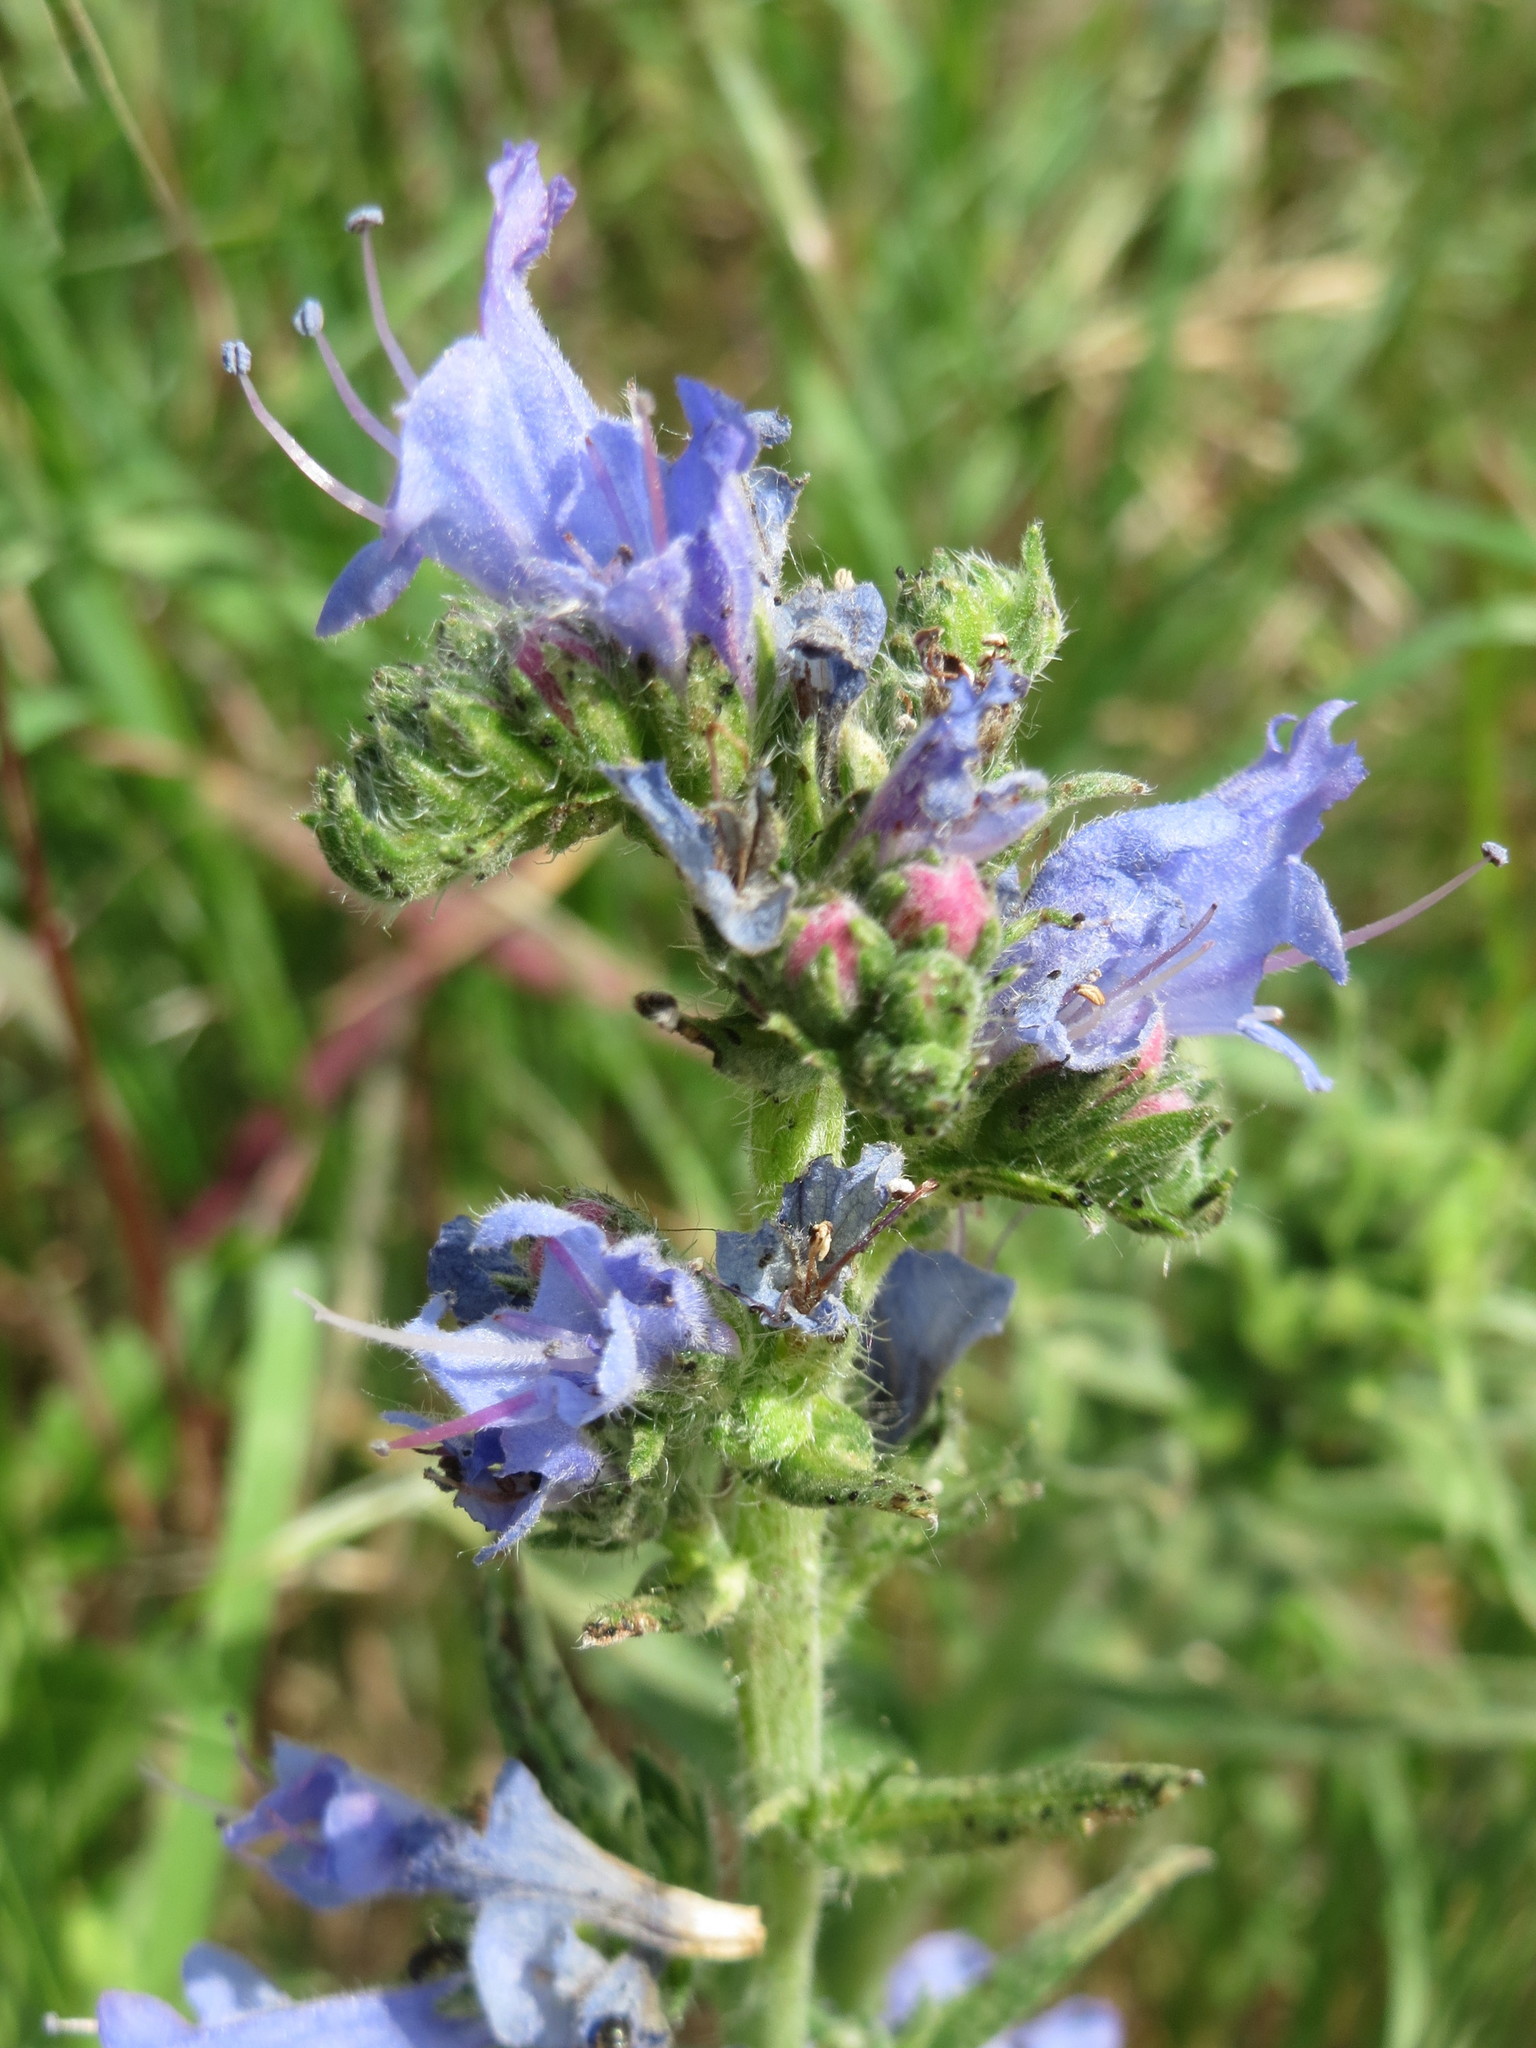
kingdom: Plantae
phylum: Tracheophyta
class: Magnoliopsida
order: Boraginales
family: Boraginaceae
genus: Echium
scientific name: Echium vulgare
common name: Common viper's bugloss
